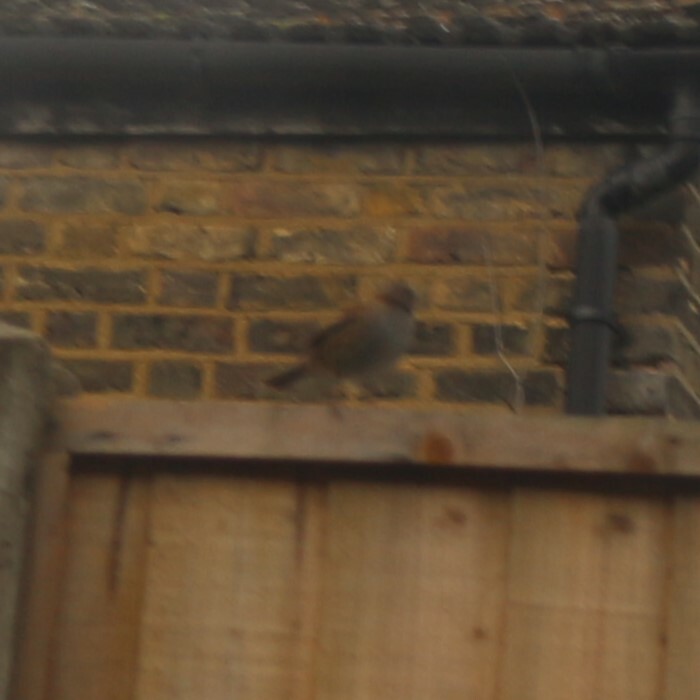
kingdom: Animalia
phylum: Chordata
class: Aves
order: Passeriformes
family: Prunellidae
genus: Prunella
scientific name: Prunella modularis
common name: Dunnock
